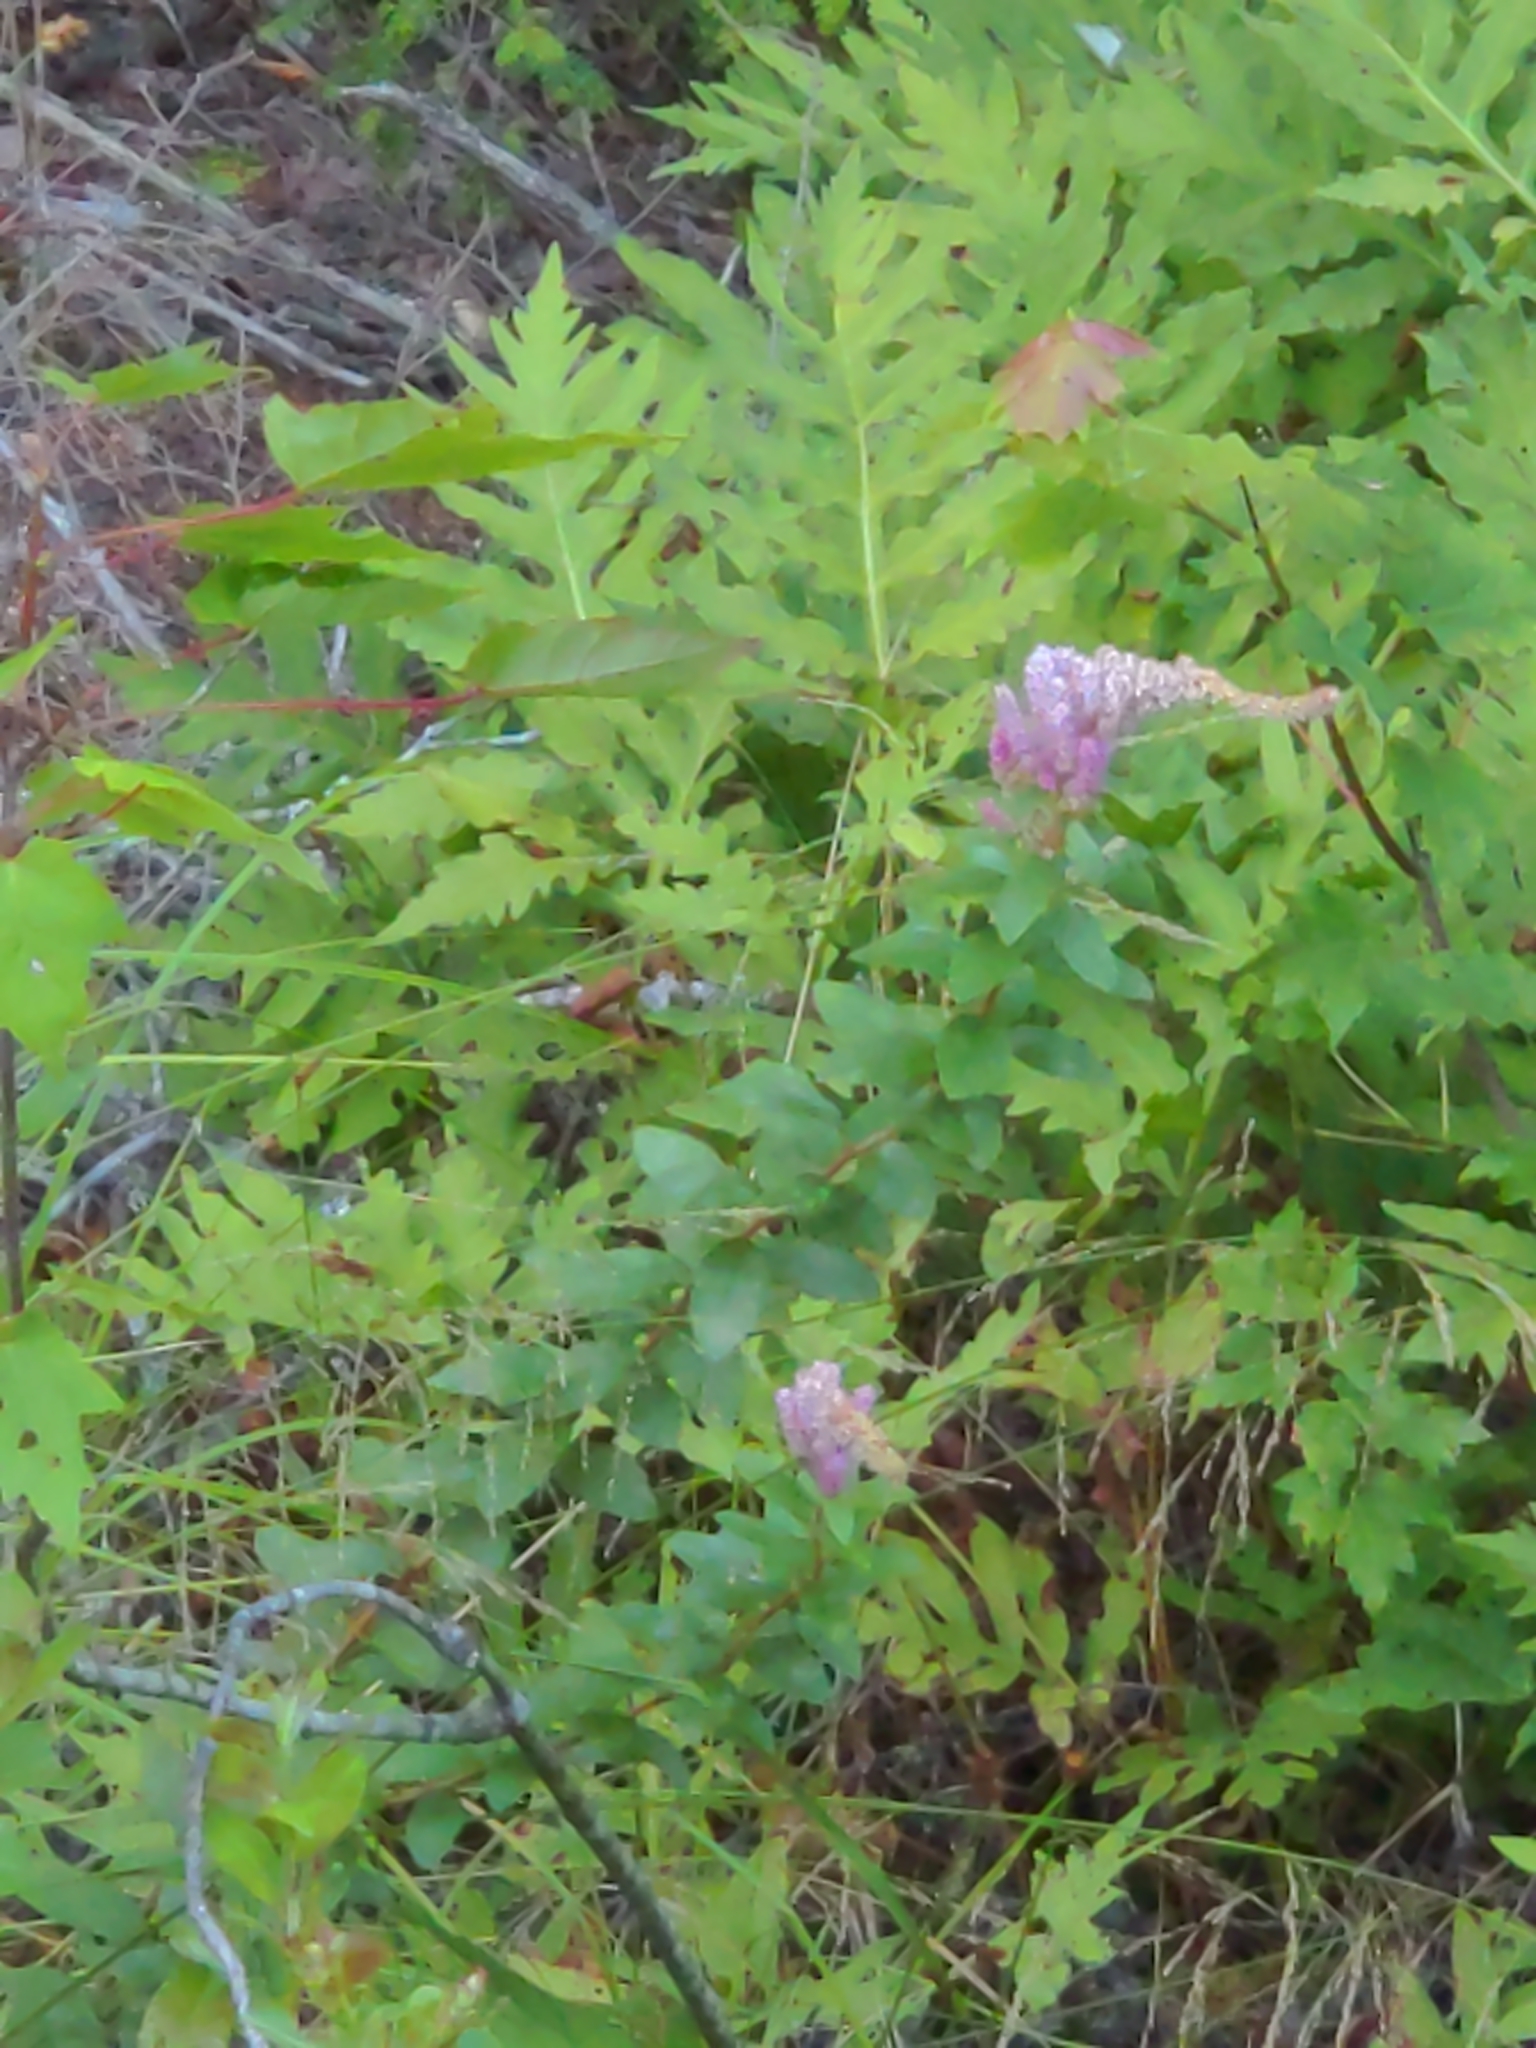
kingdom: Plantae
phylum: Tracheophyta
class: Magnoliopsida
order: Rosales
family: Rosaceae
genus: Spiraea
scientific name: Spiraea tomentosa
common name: Hardhack
